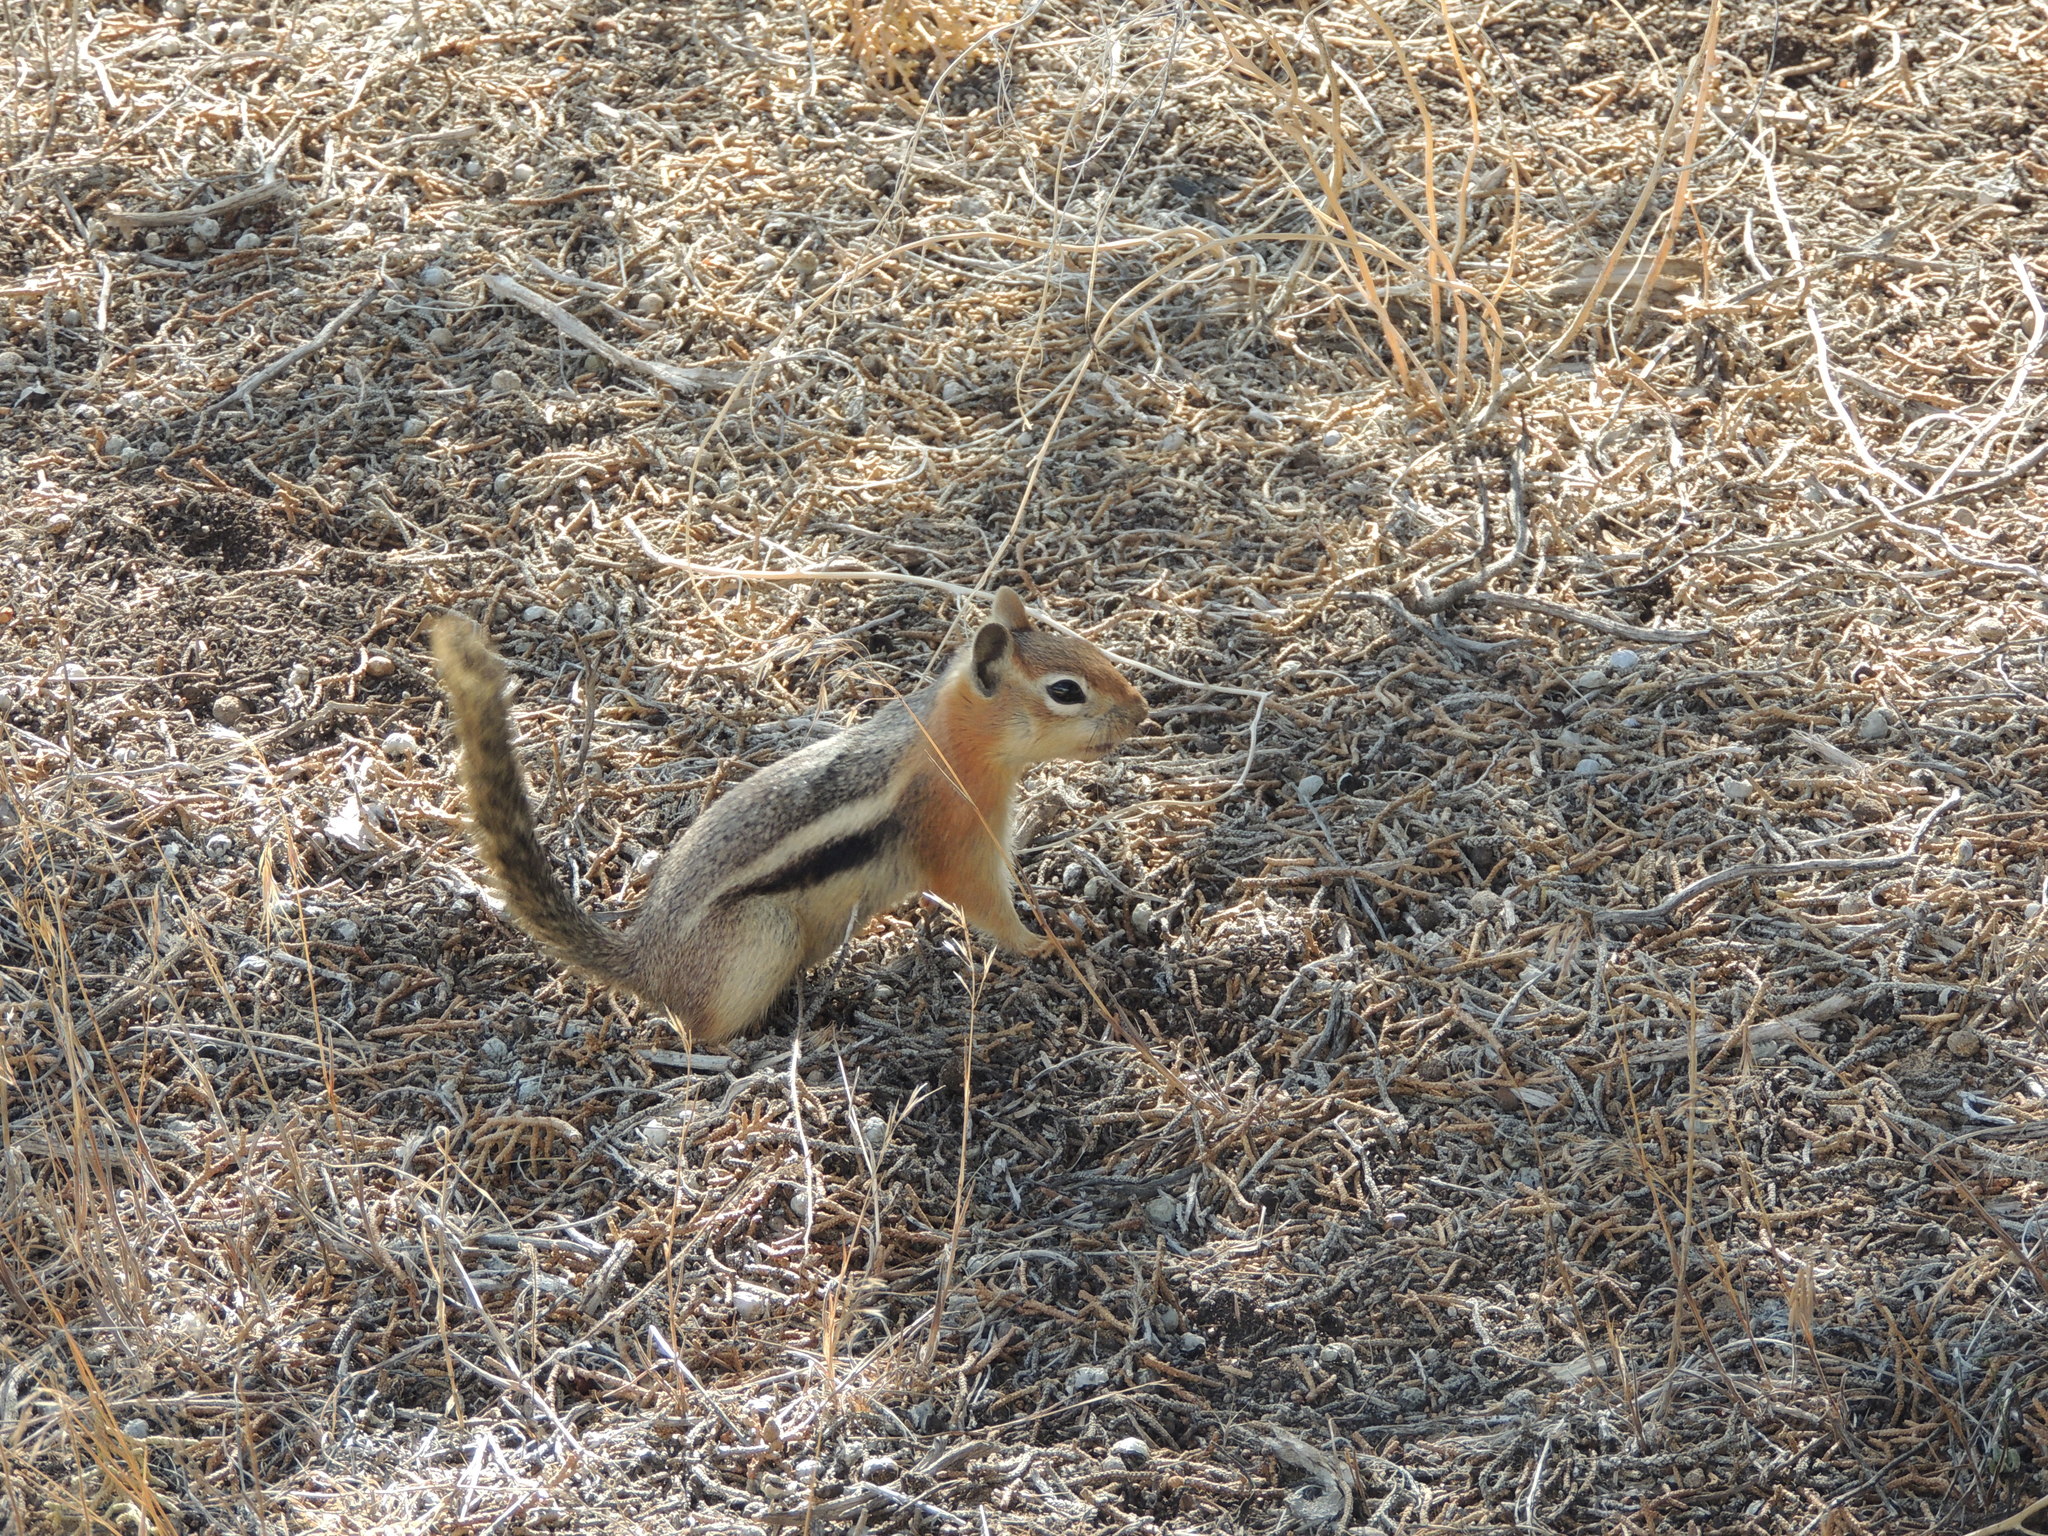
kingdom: Animalia
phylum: Chordata
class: Mammalia
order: Rodentia
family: Sciuridae
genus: Callospermophilus
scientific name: Callospermophilus lateralis
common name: Golden-mantled ground squirrel
